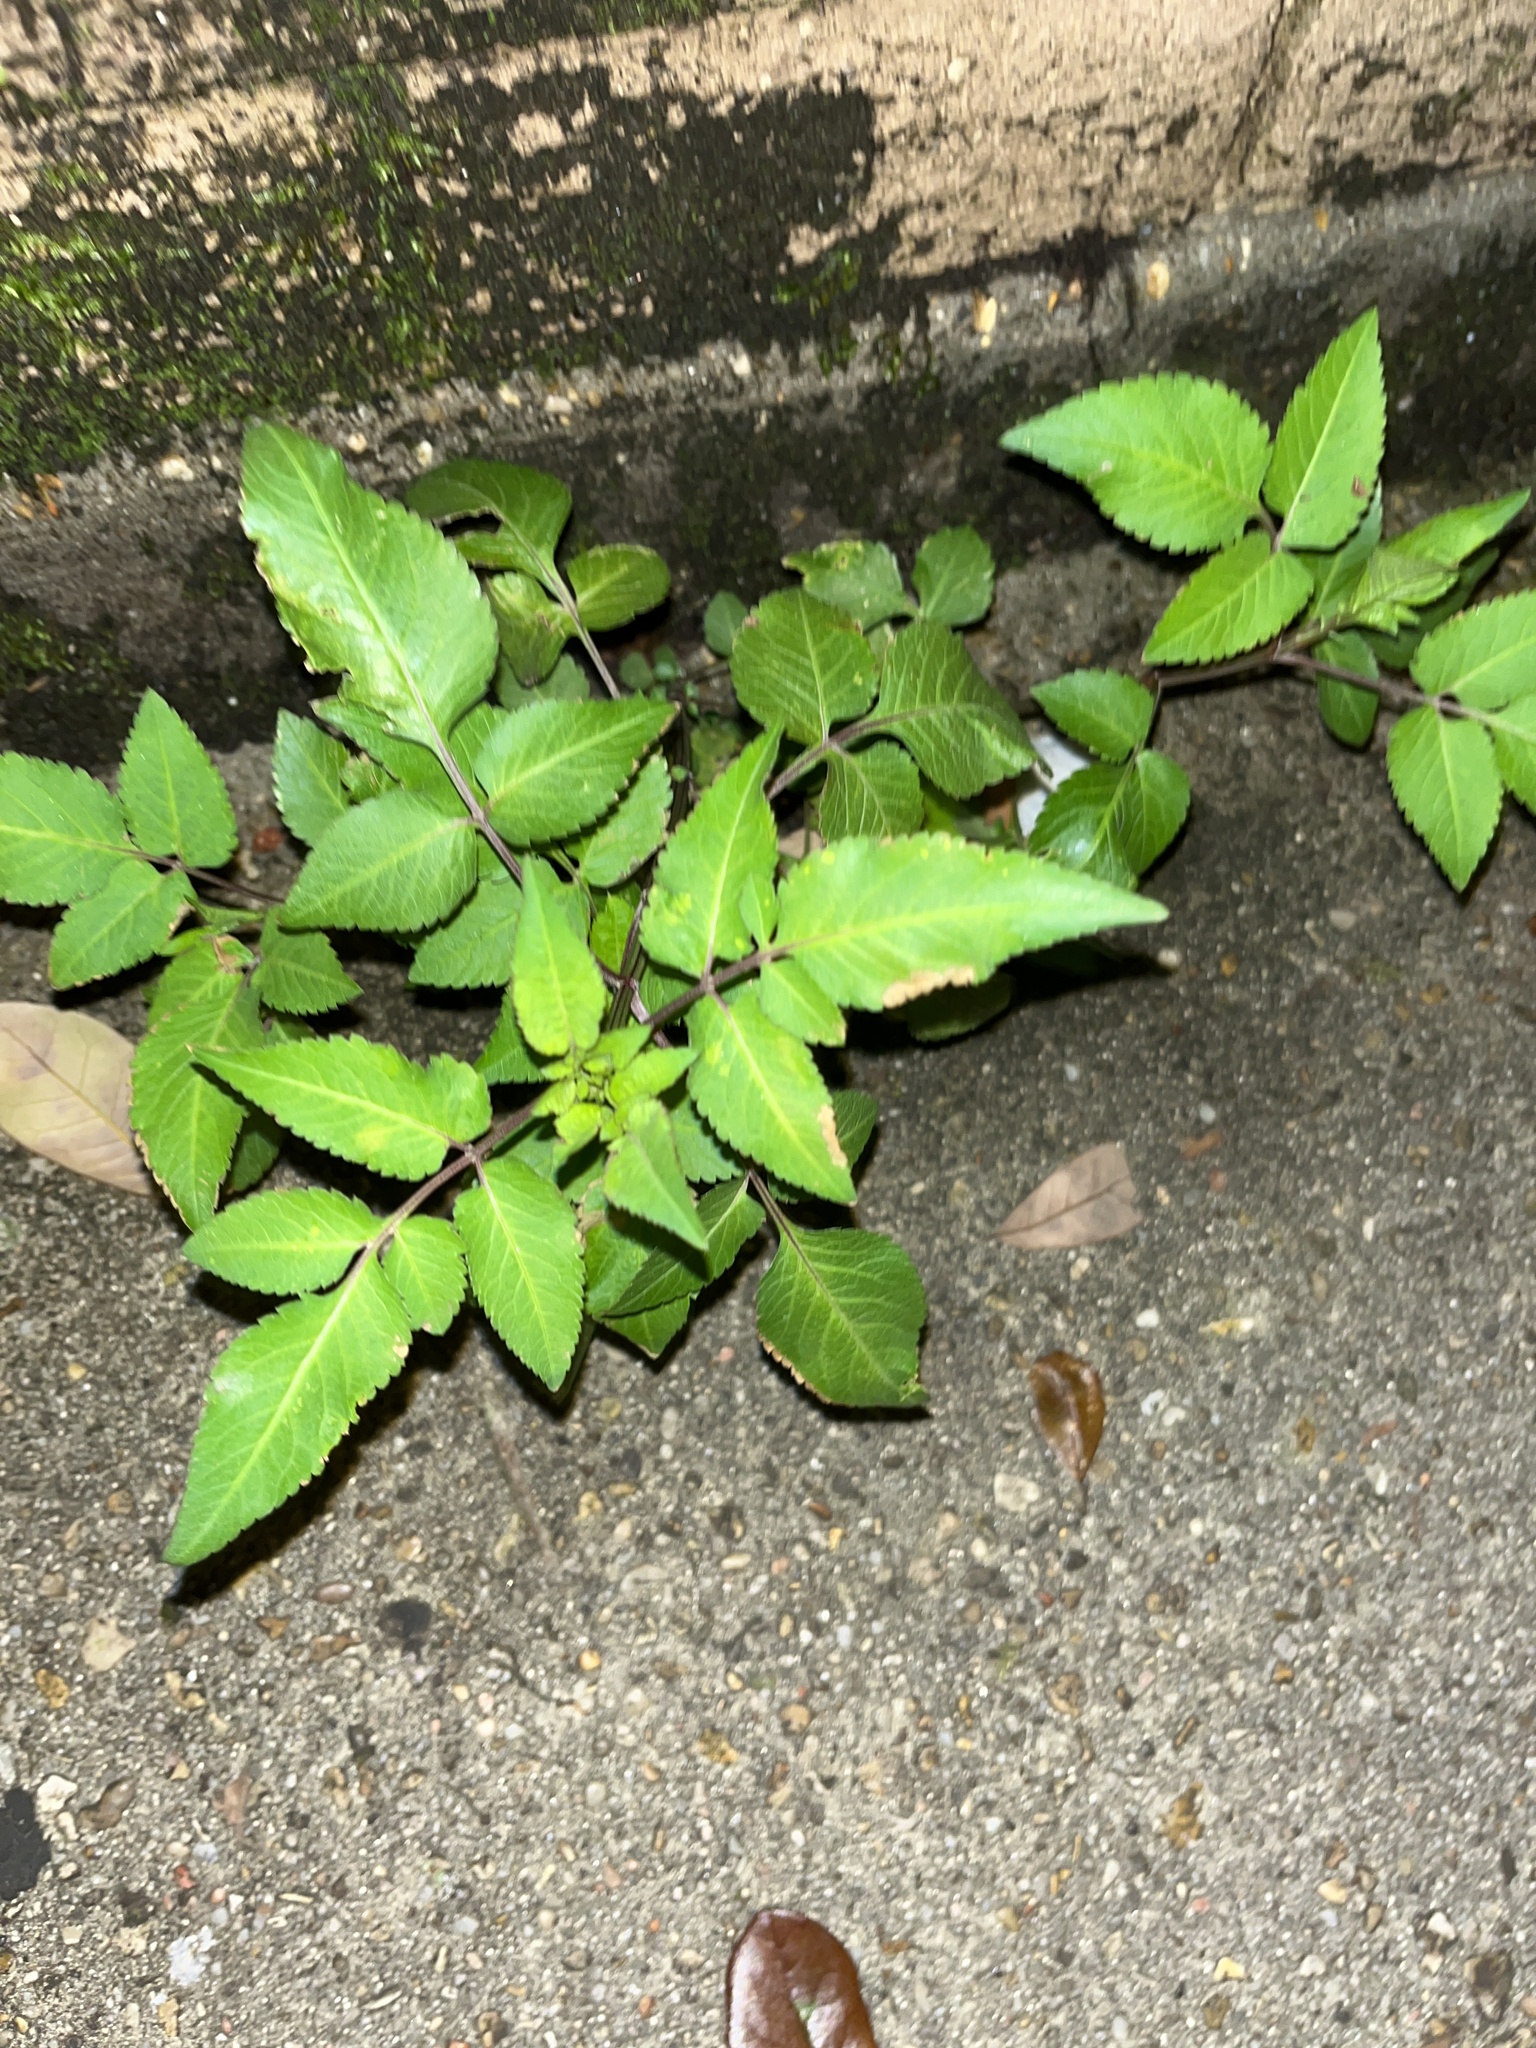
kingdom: Plantae
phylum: Tracheophyta
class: Magnoliopsida
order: Asterales
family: Asteraceae
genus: Bidens
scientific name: Bidens alba
